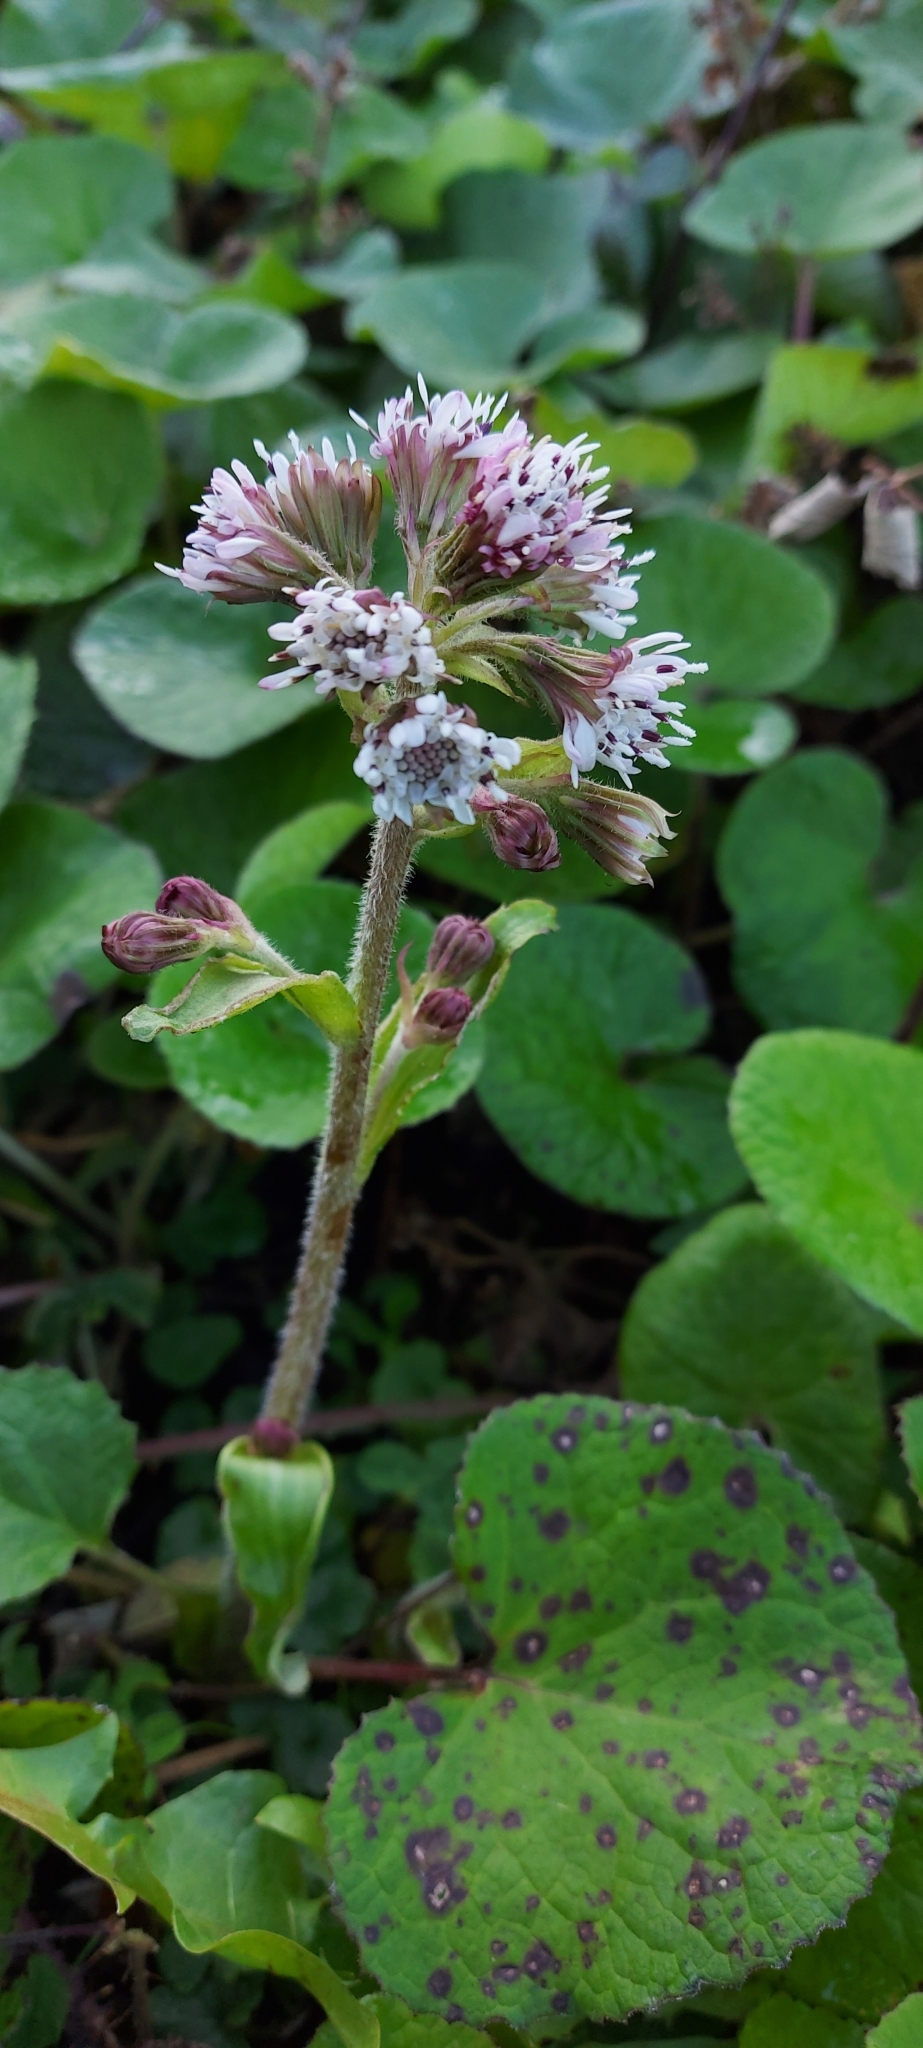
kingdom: Plantae
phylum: Tracheophyta
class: Magnoliopsida
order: Asterales
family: Asteraceae
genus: Petasites
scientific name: Petasites pyrenaicus
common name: Winter heliotrope
